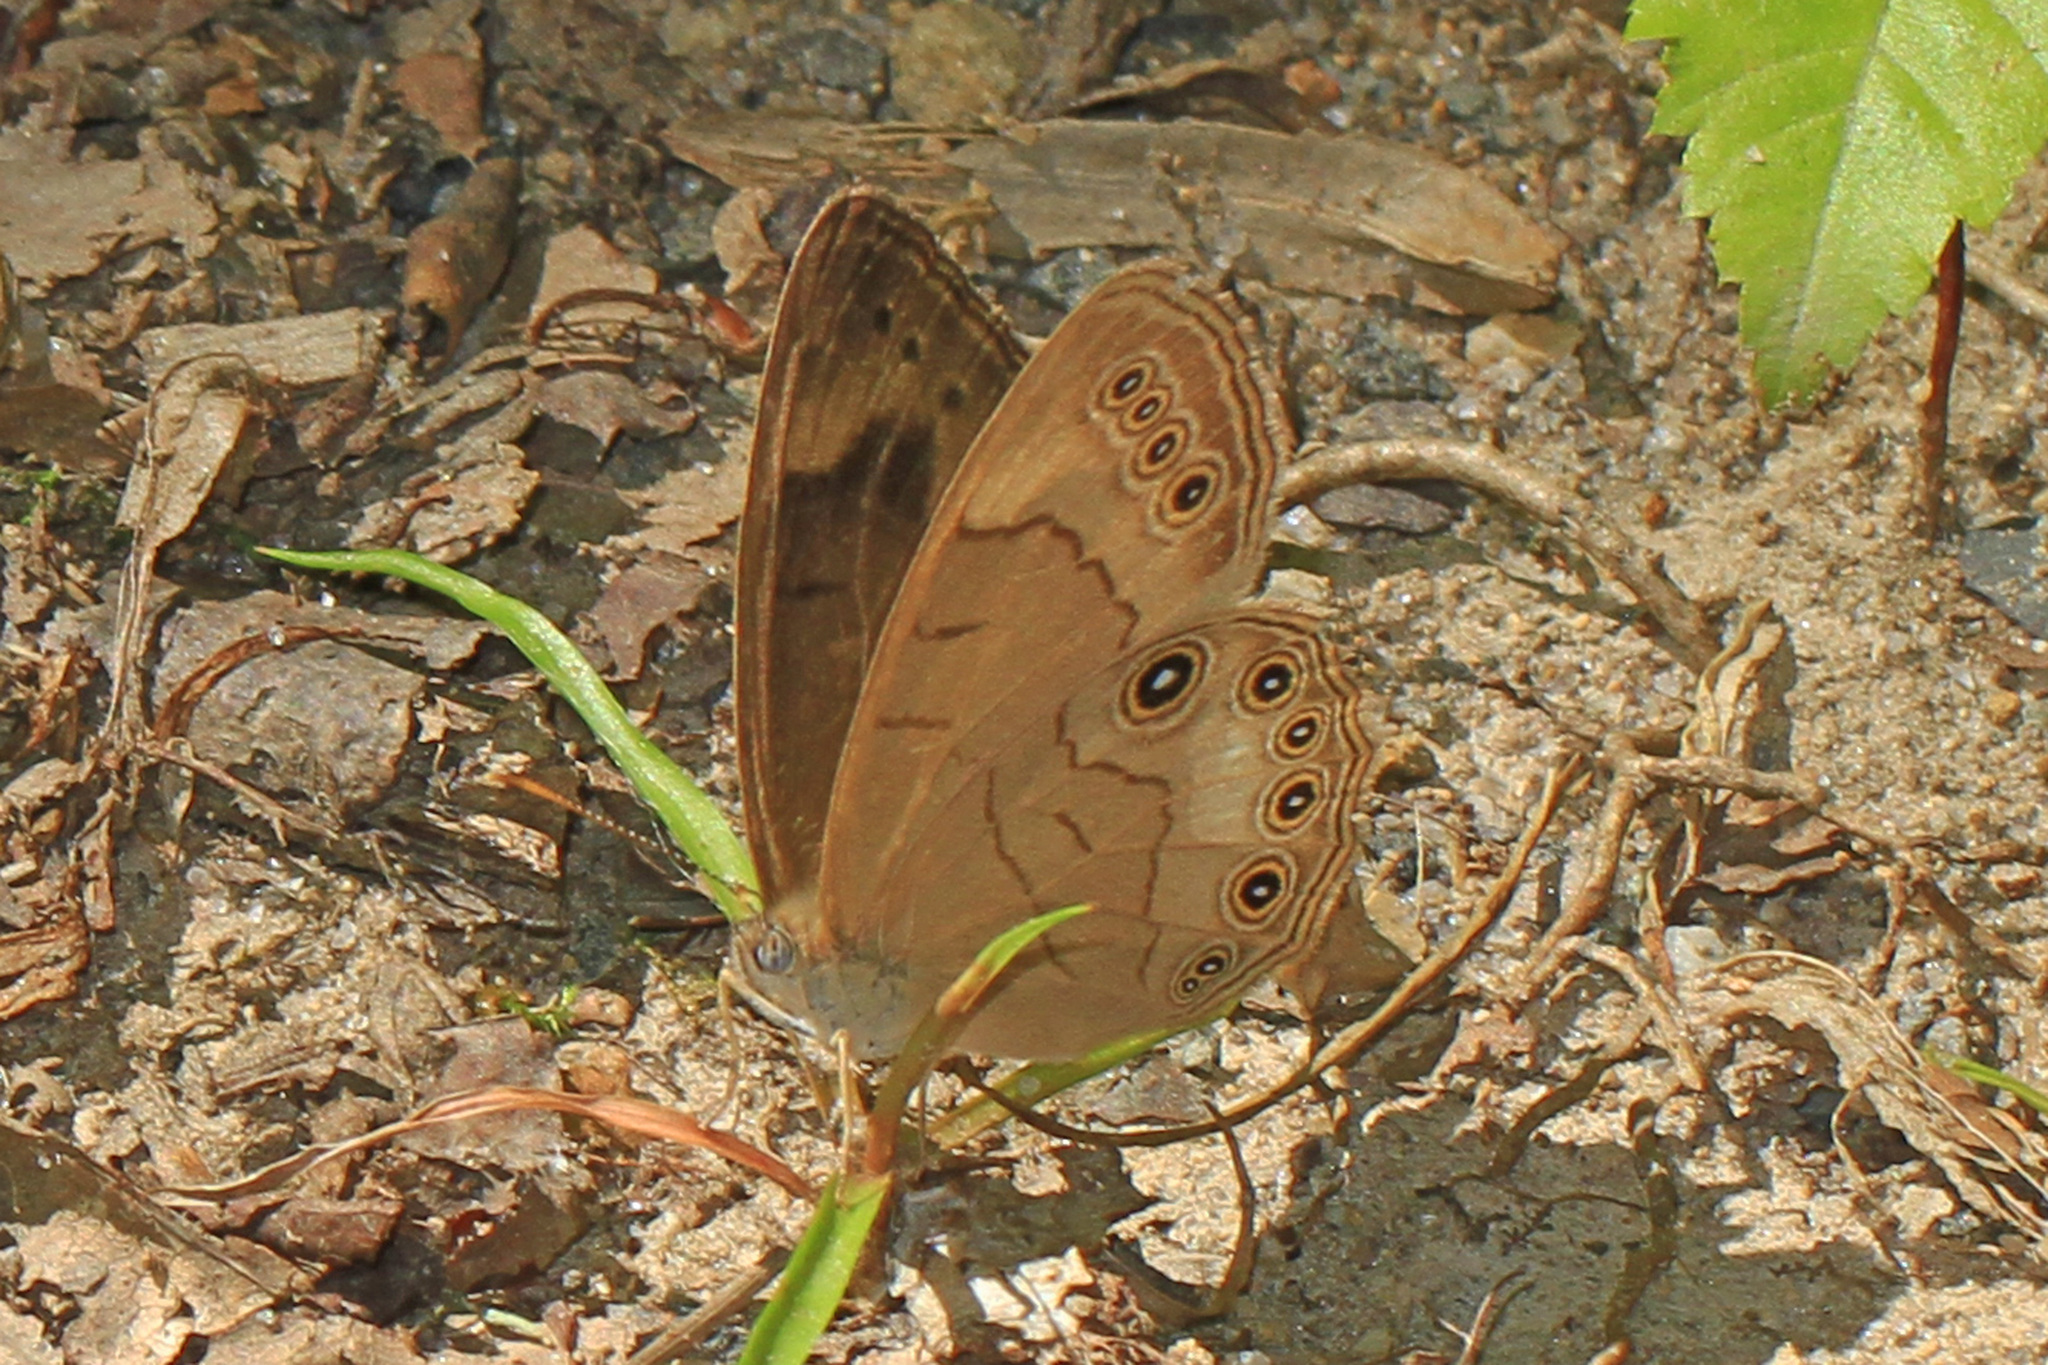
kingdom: Animalia
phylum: Arthropoda
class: Insecta
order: Lepidoptera
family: Nymphalidae
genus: Lethe
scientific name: Lethe eurydice
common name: Eyed brown
